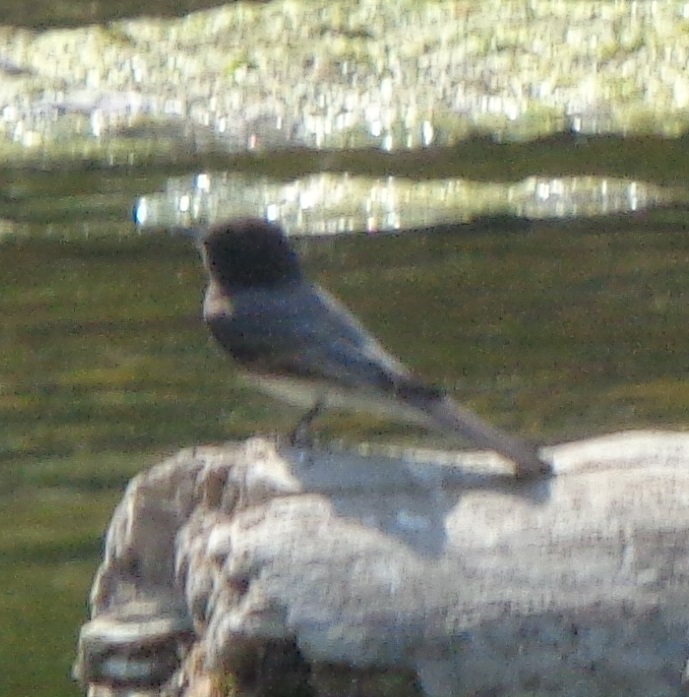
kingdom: Animalia
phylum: Chordata
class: Aves
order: Passeriformes
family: Tyrannidae
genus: Sayornis
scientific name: Sayornis nigricans
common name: Black phoebe
